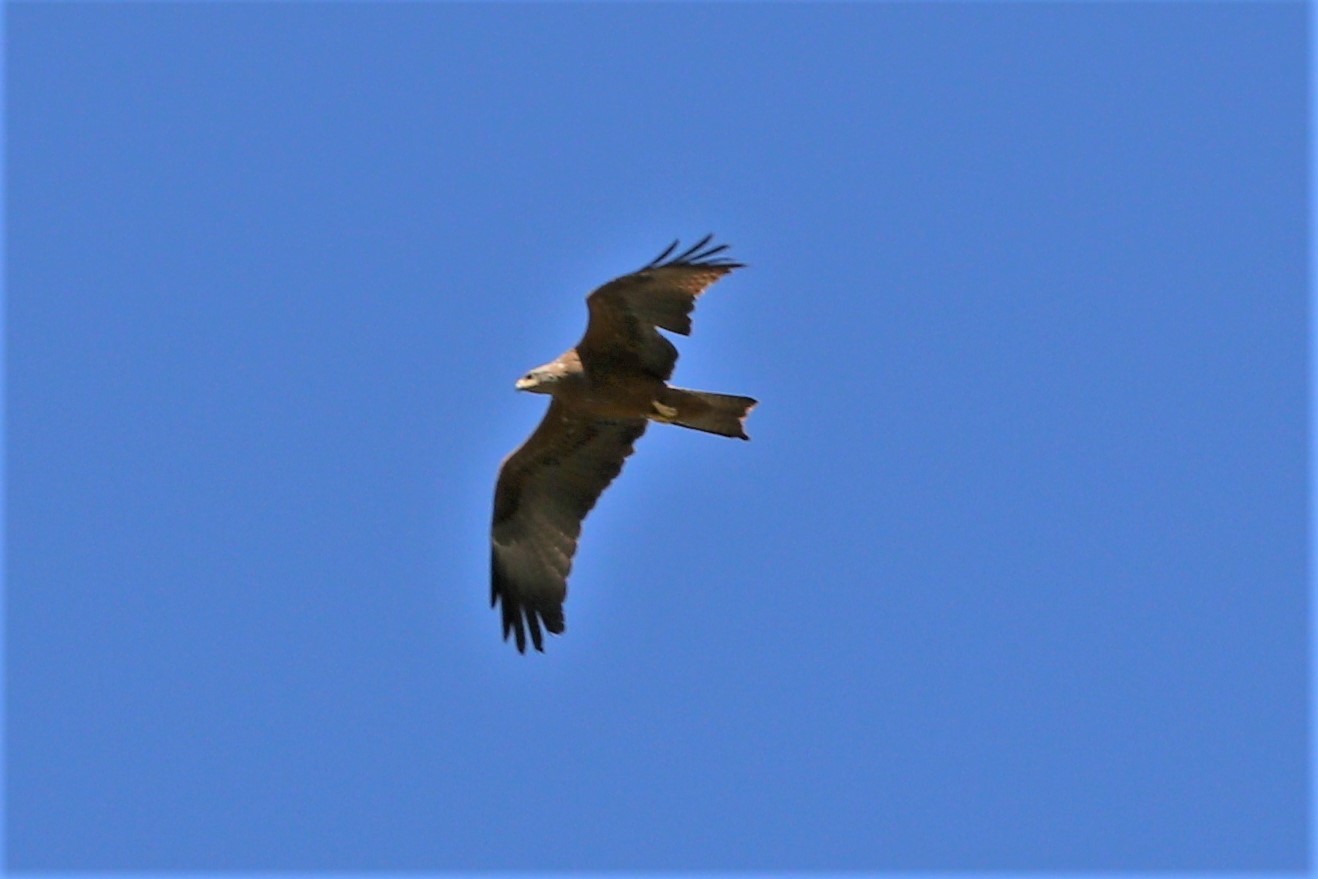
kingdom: Animalia
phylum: Chordata
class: Aves
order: Accipitriformes
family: Accipitridae
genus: Milvus
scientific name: Milvus migrans
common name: Black kite
